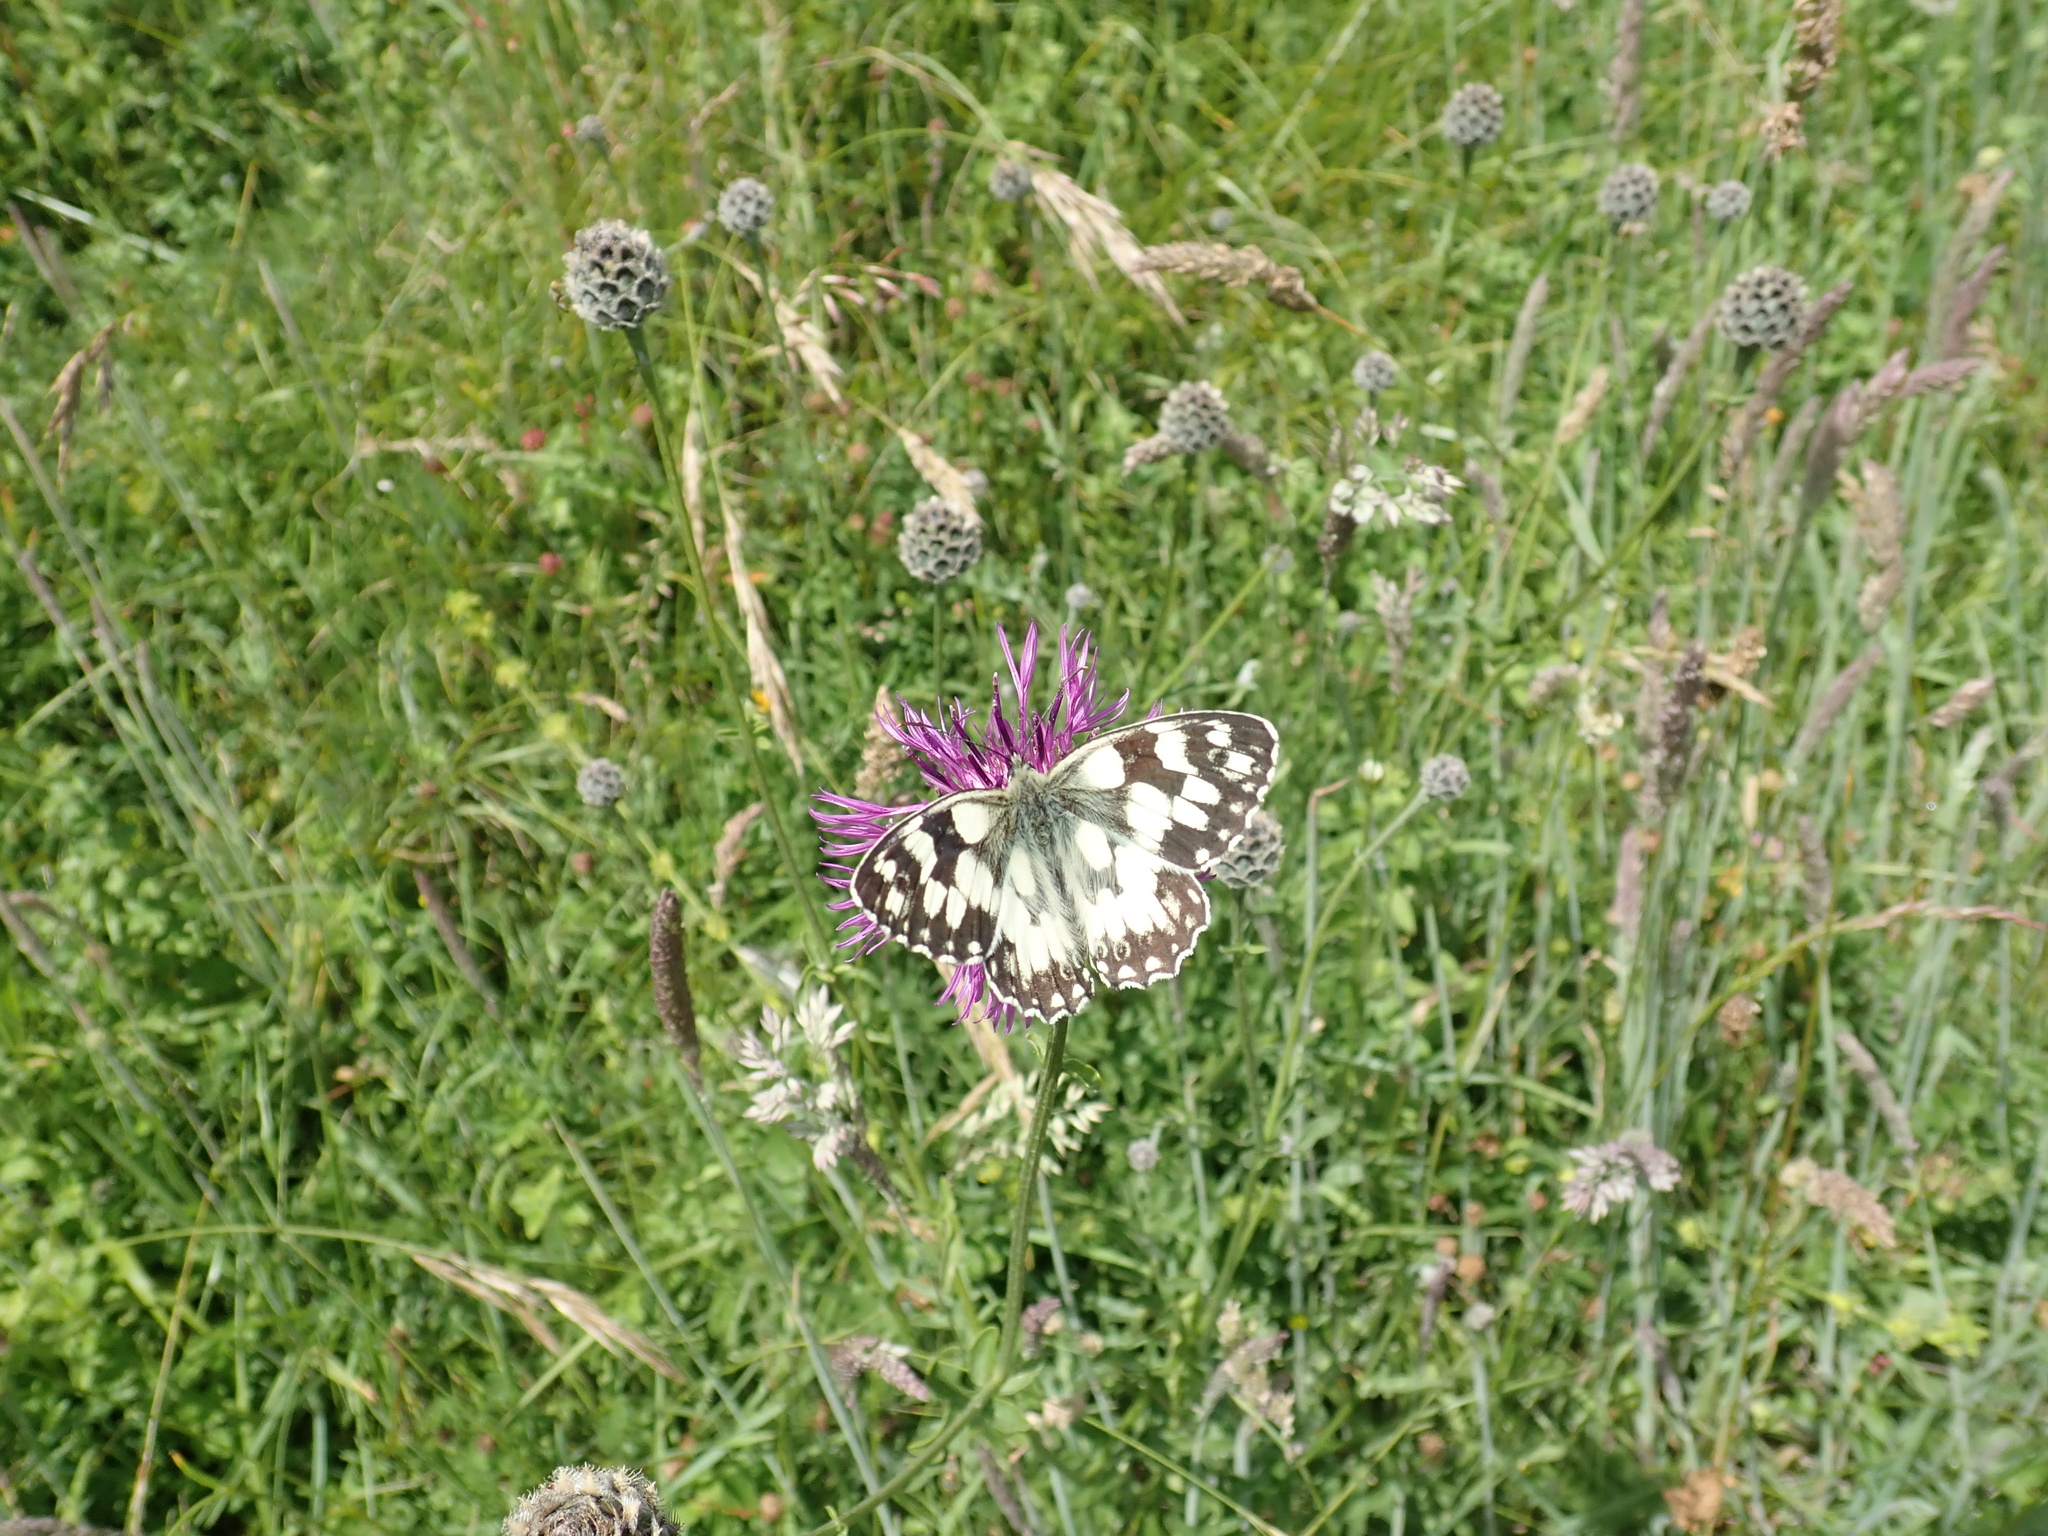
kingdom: Animalia
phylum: Arthropoda
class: Insecta
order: Lepidoptera
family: Nymphalidae
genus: Melanargia
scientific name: Melanargia galathea
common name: Marbled white
